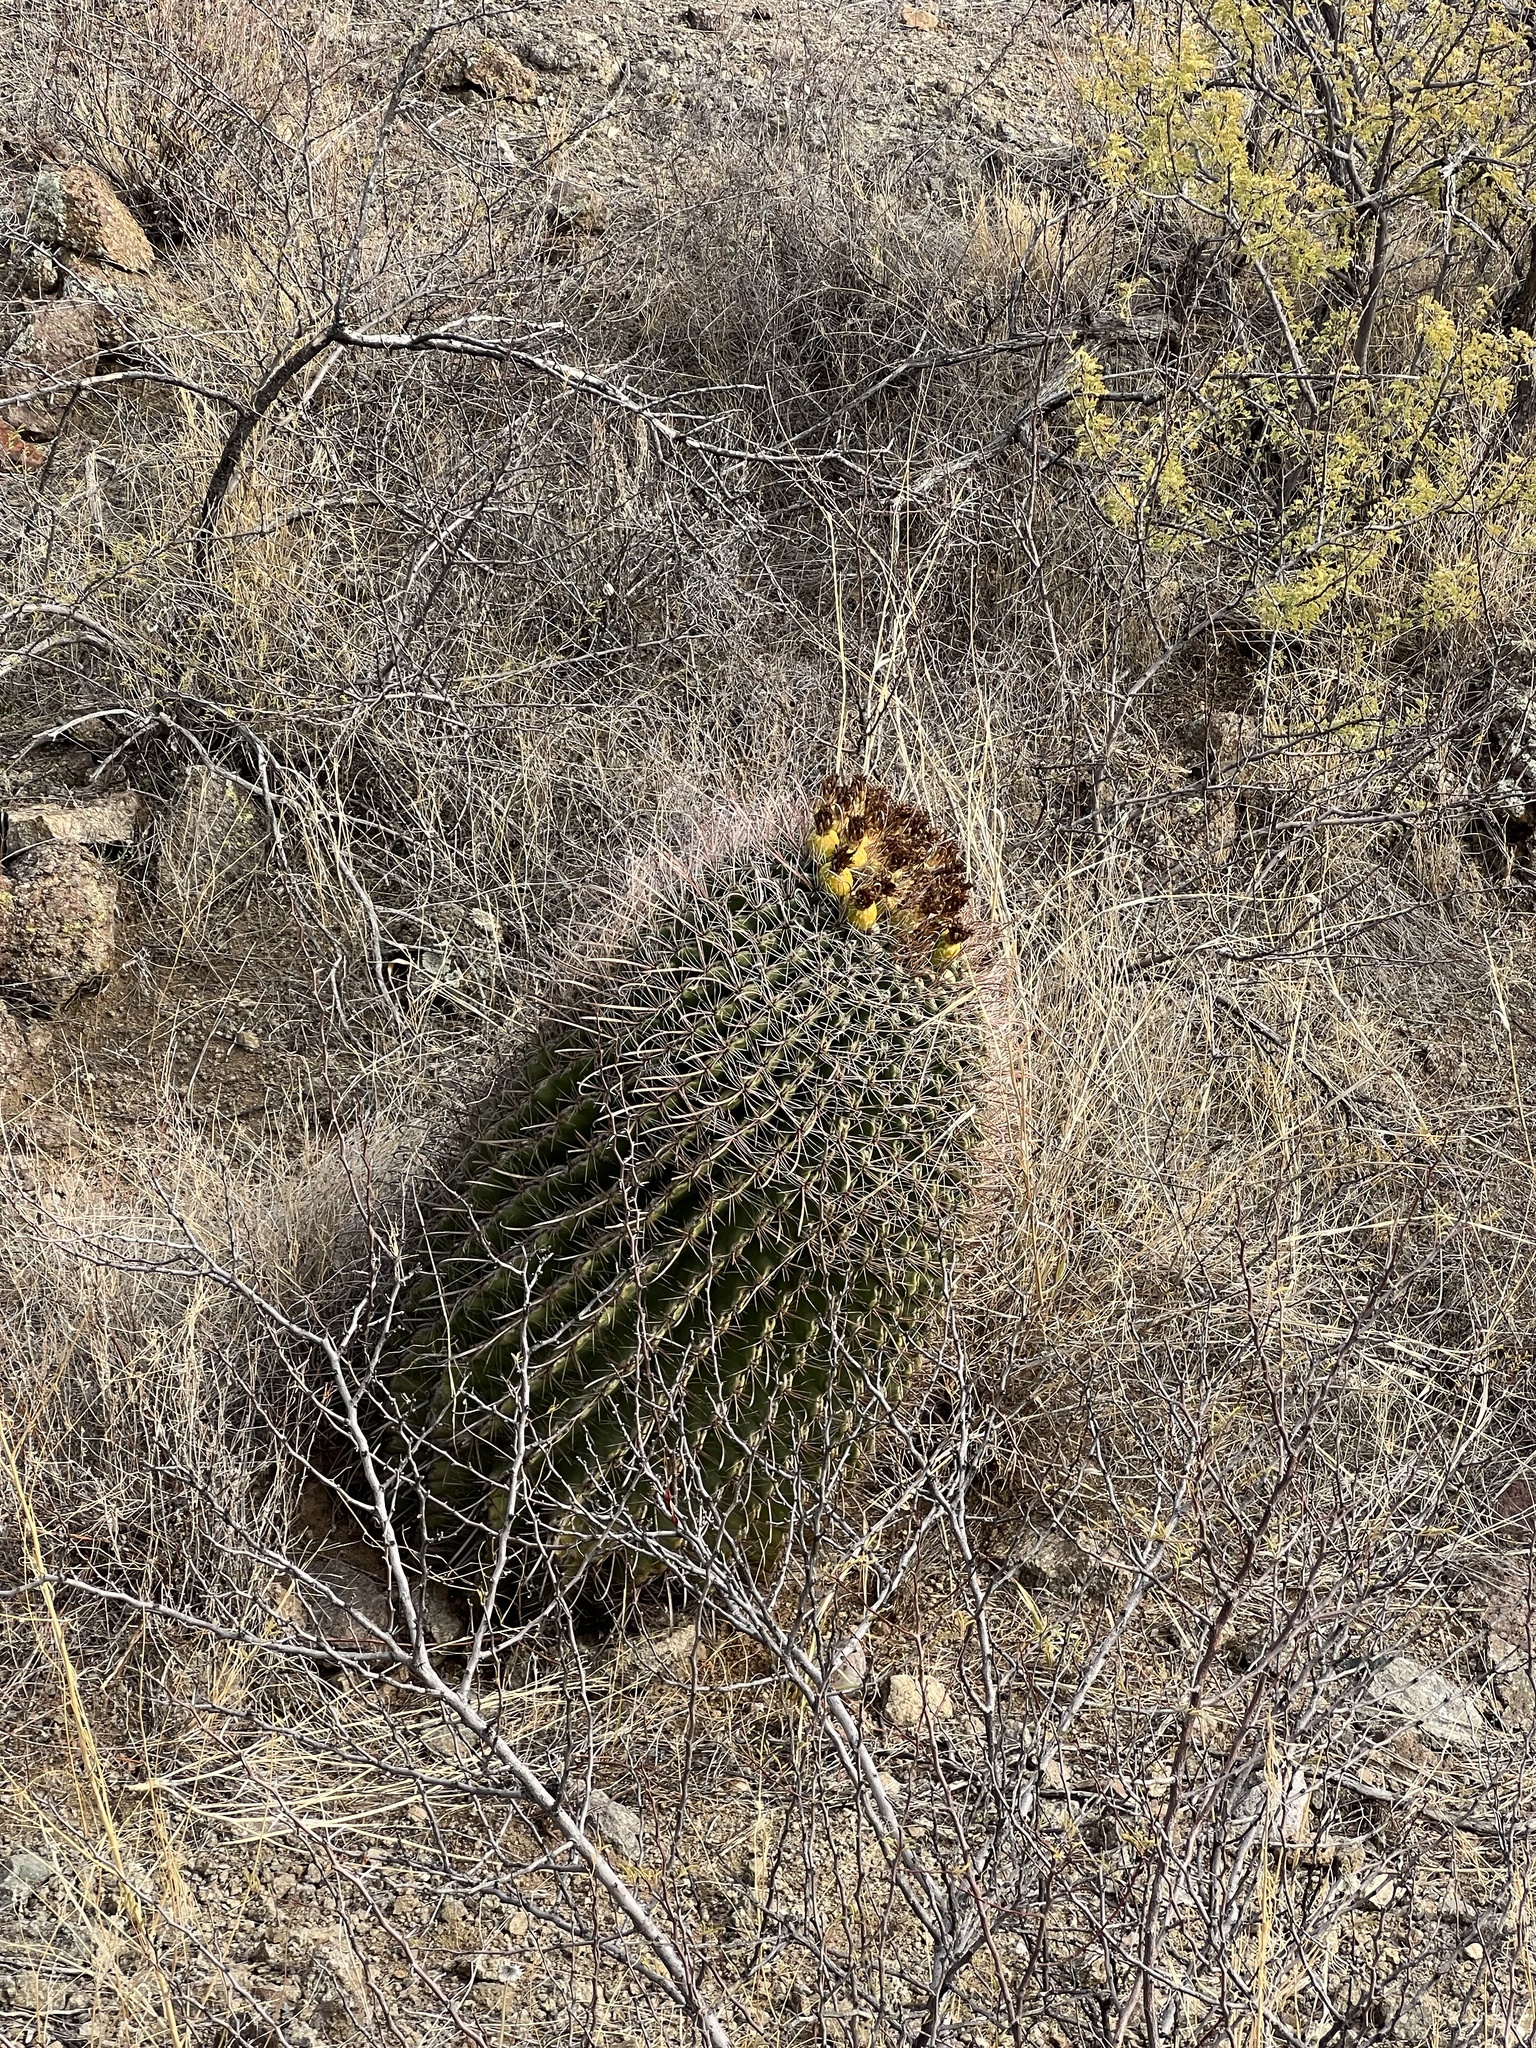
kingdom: Plantae
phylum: Tracheophyta
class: Magnoliopsida
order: Caryophyllales
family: Cactaceae
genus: Ferocactus
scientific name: Ferocactus wislizeni
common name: Candy barrel cactus
